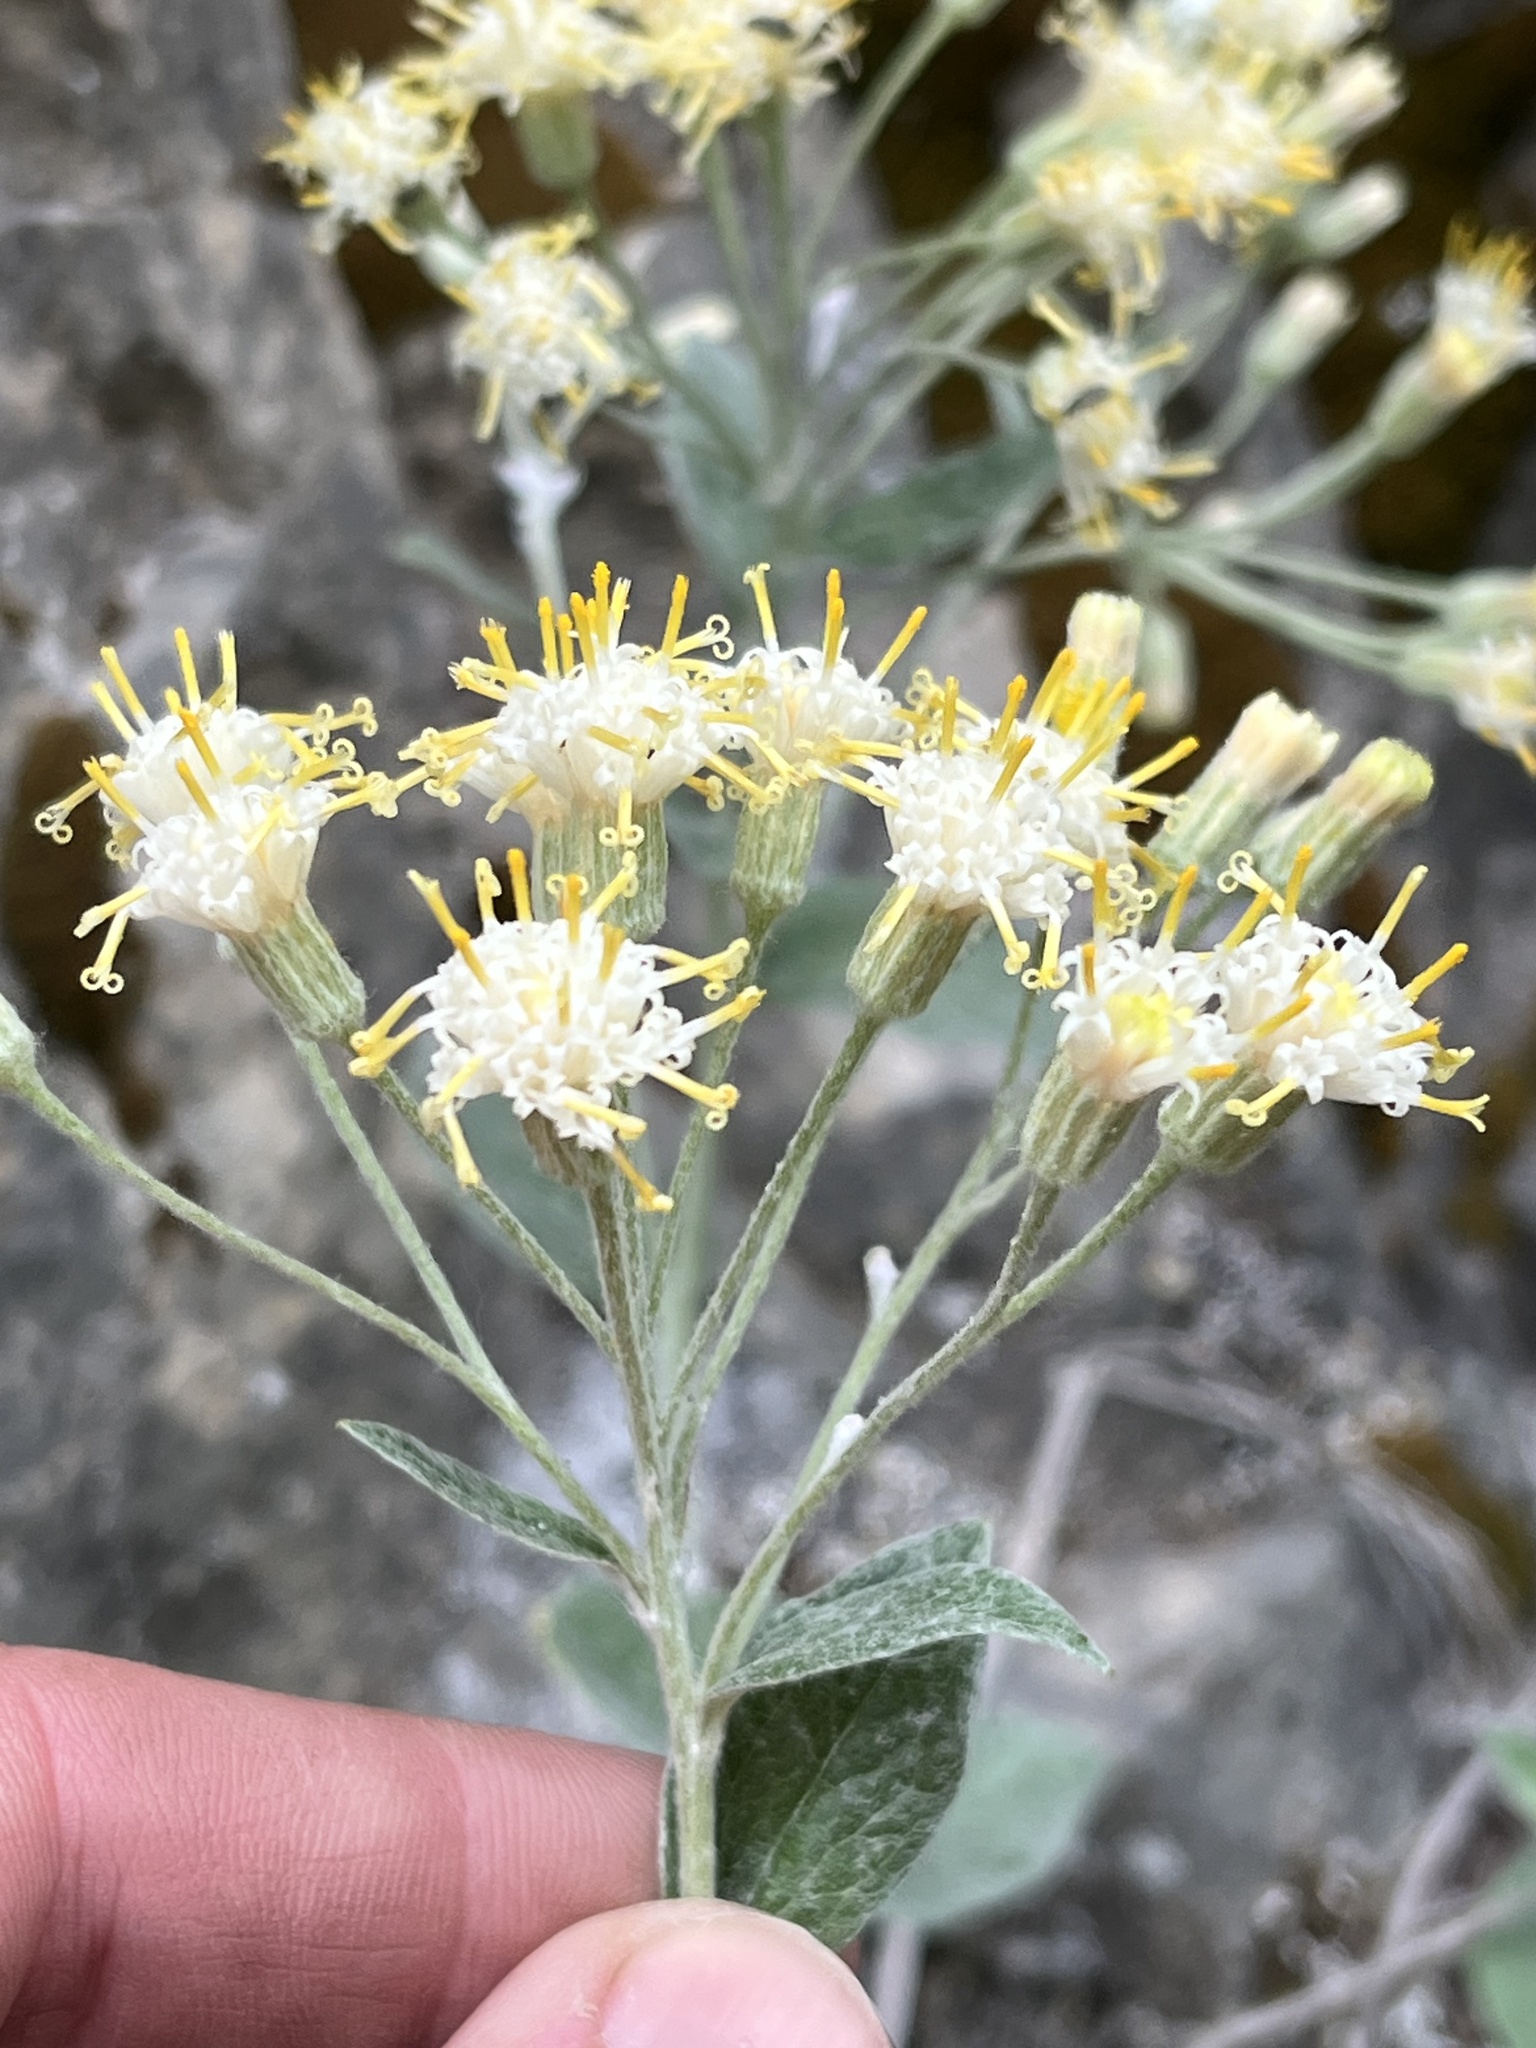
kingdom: Plantae
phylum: Tracheophyta
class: Magnoliopsida
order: Asterales
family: Asteraceae
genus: Luina
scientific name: Luina hypoleuca
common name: Little-leaved luina
